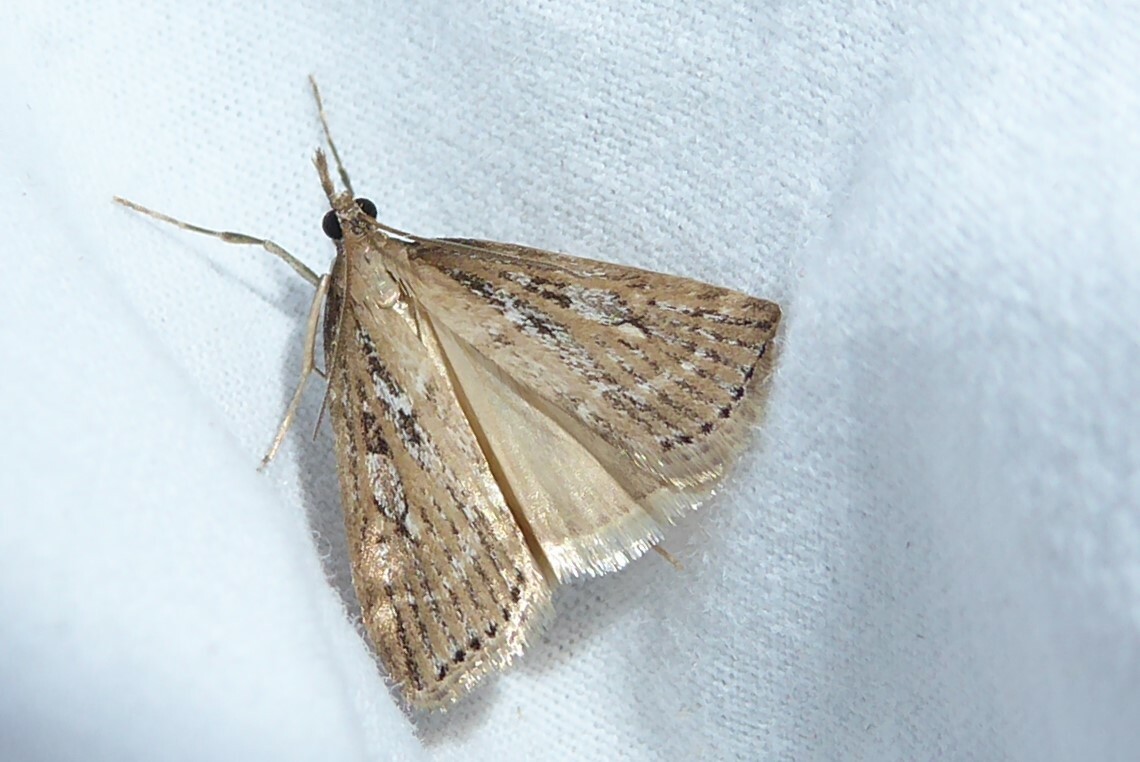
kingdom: Animalia
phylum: Arthropoda
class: Insecta
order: Lepidoptera
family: Crambidae
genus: Eudonia
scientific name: Eudonia octophora
